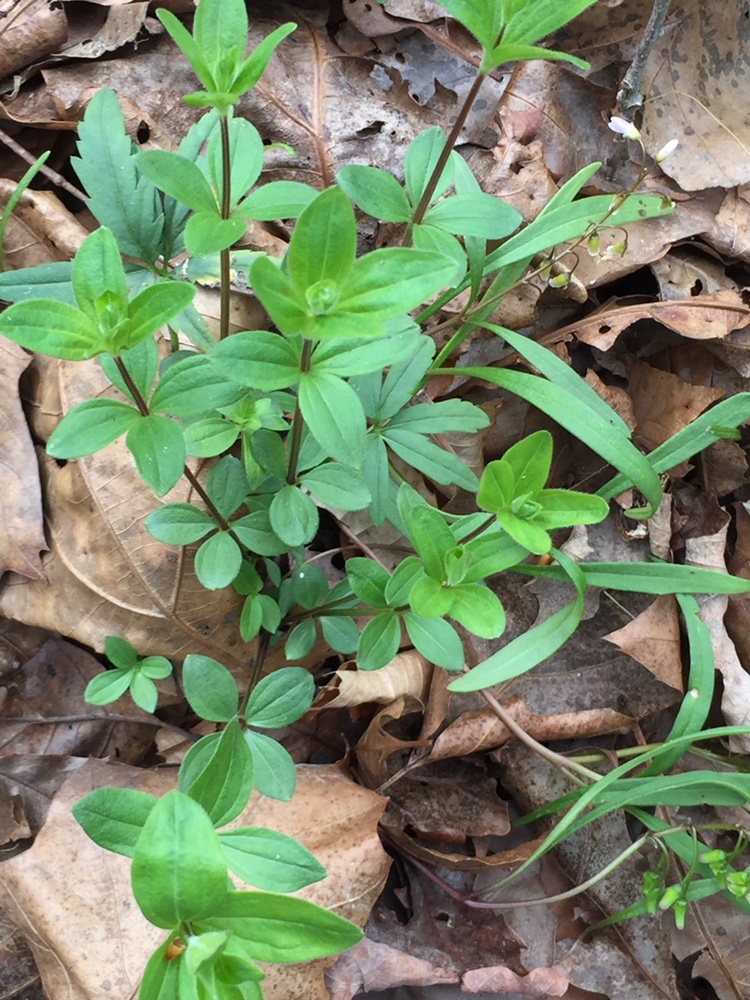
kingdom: Plantae
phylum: Tracheophyta
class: Magnoliopsida
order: Gentianales
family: Rubiaceae
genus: Galium
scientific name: Galium circaezans
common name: Forest bedstraw
